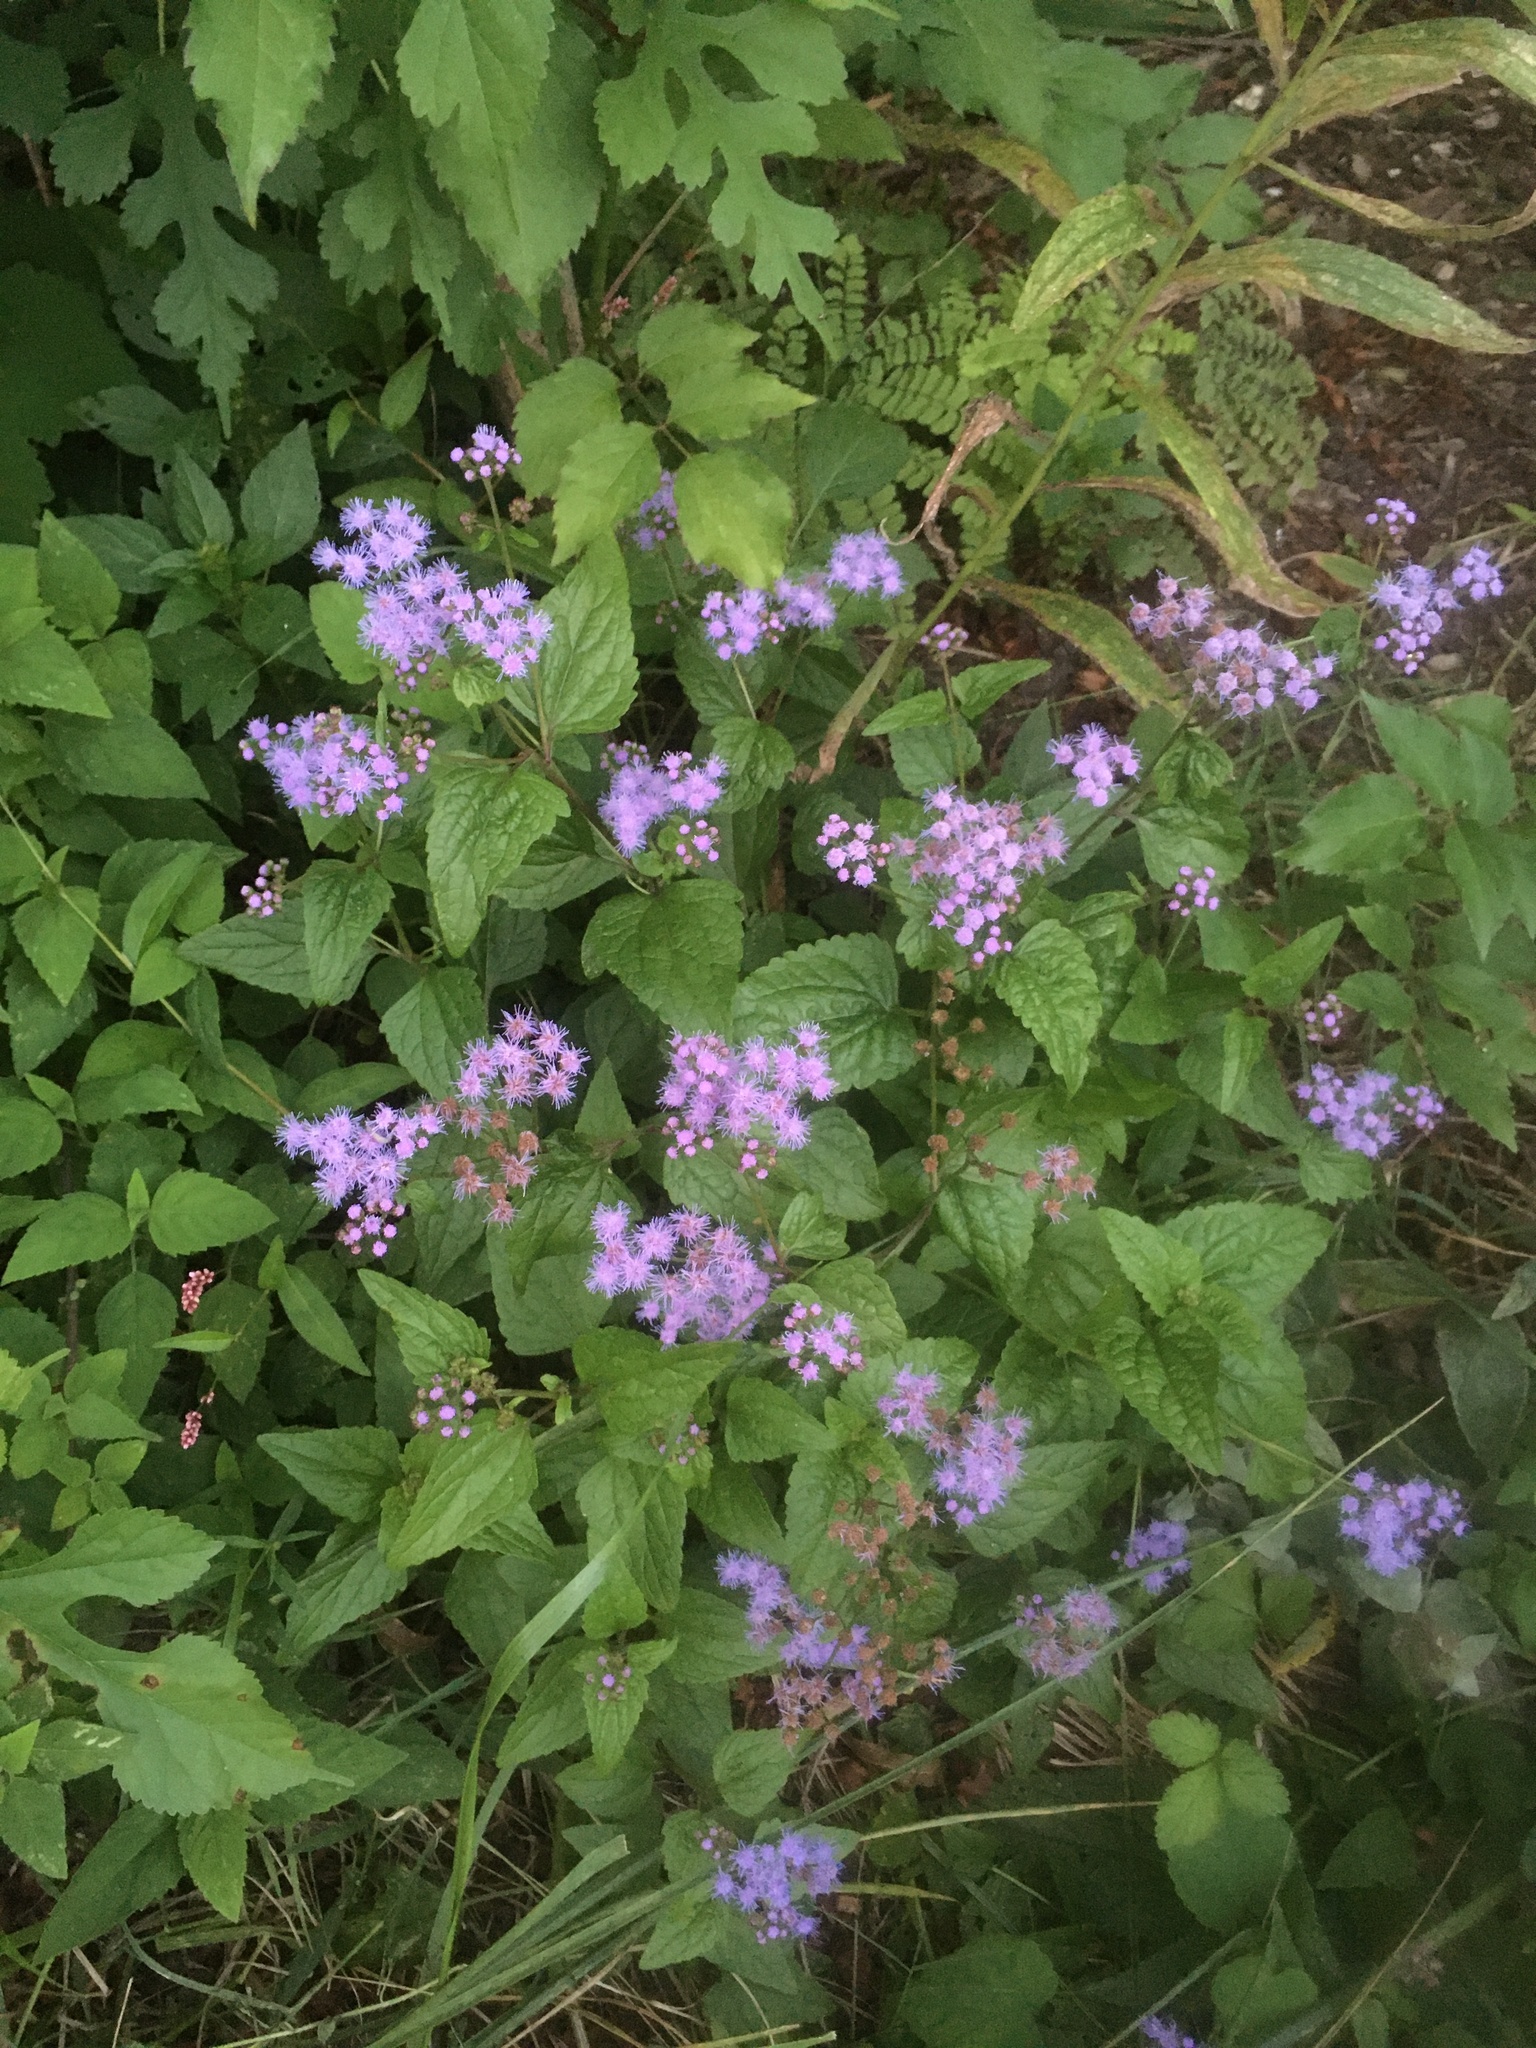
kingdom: Plantae
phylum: Tracheophyta
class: Magnoliopsida
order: Asterales
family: Asteraceae
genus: Conoclinium
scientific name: Conoclinium coelestinum
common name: Blue mistflower
